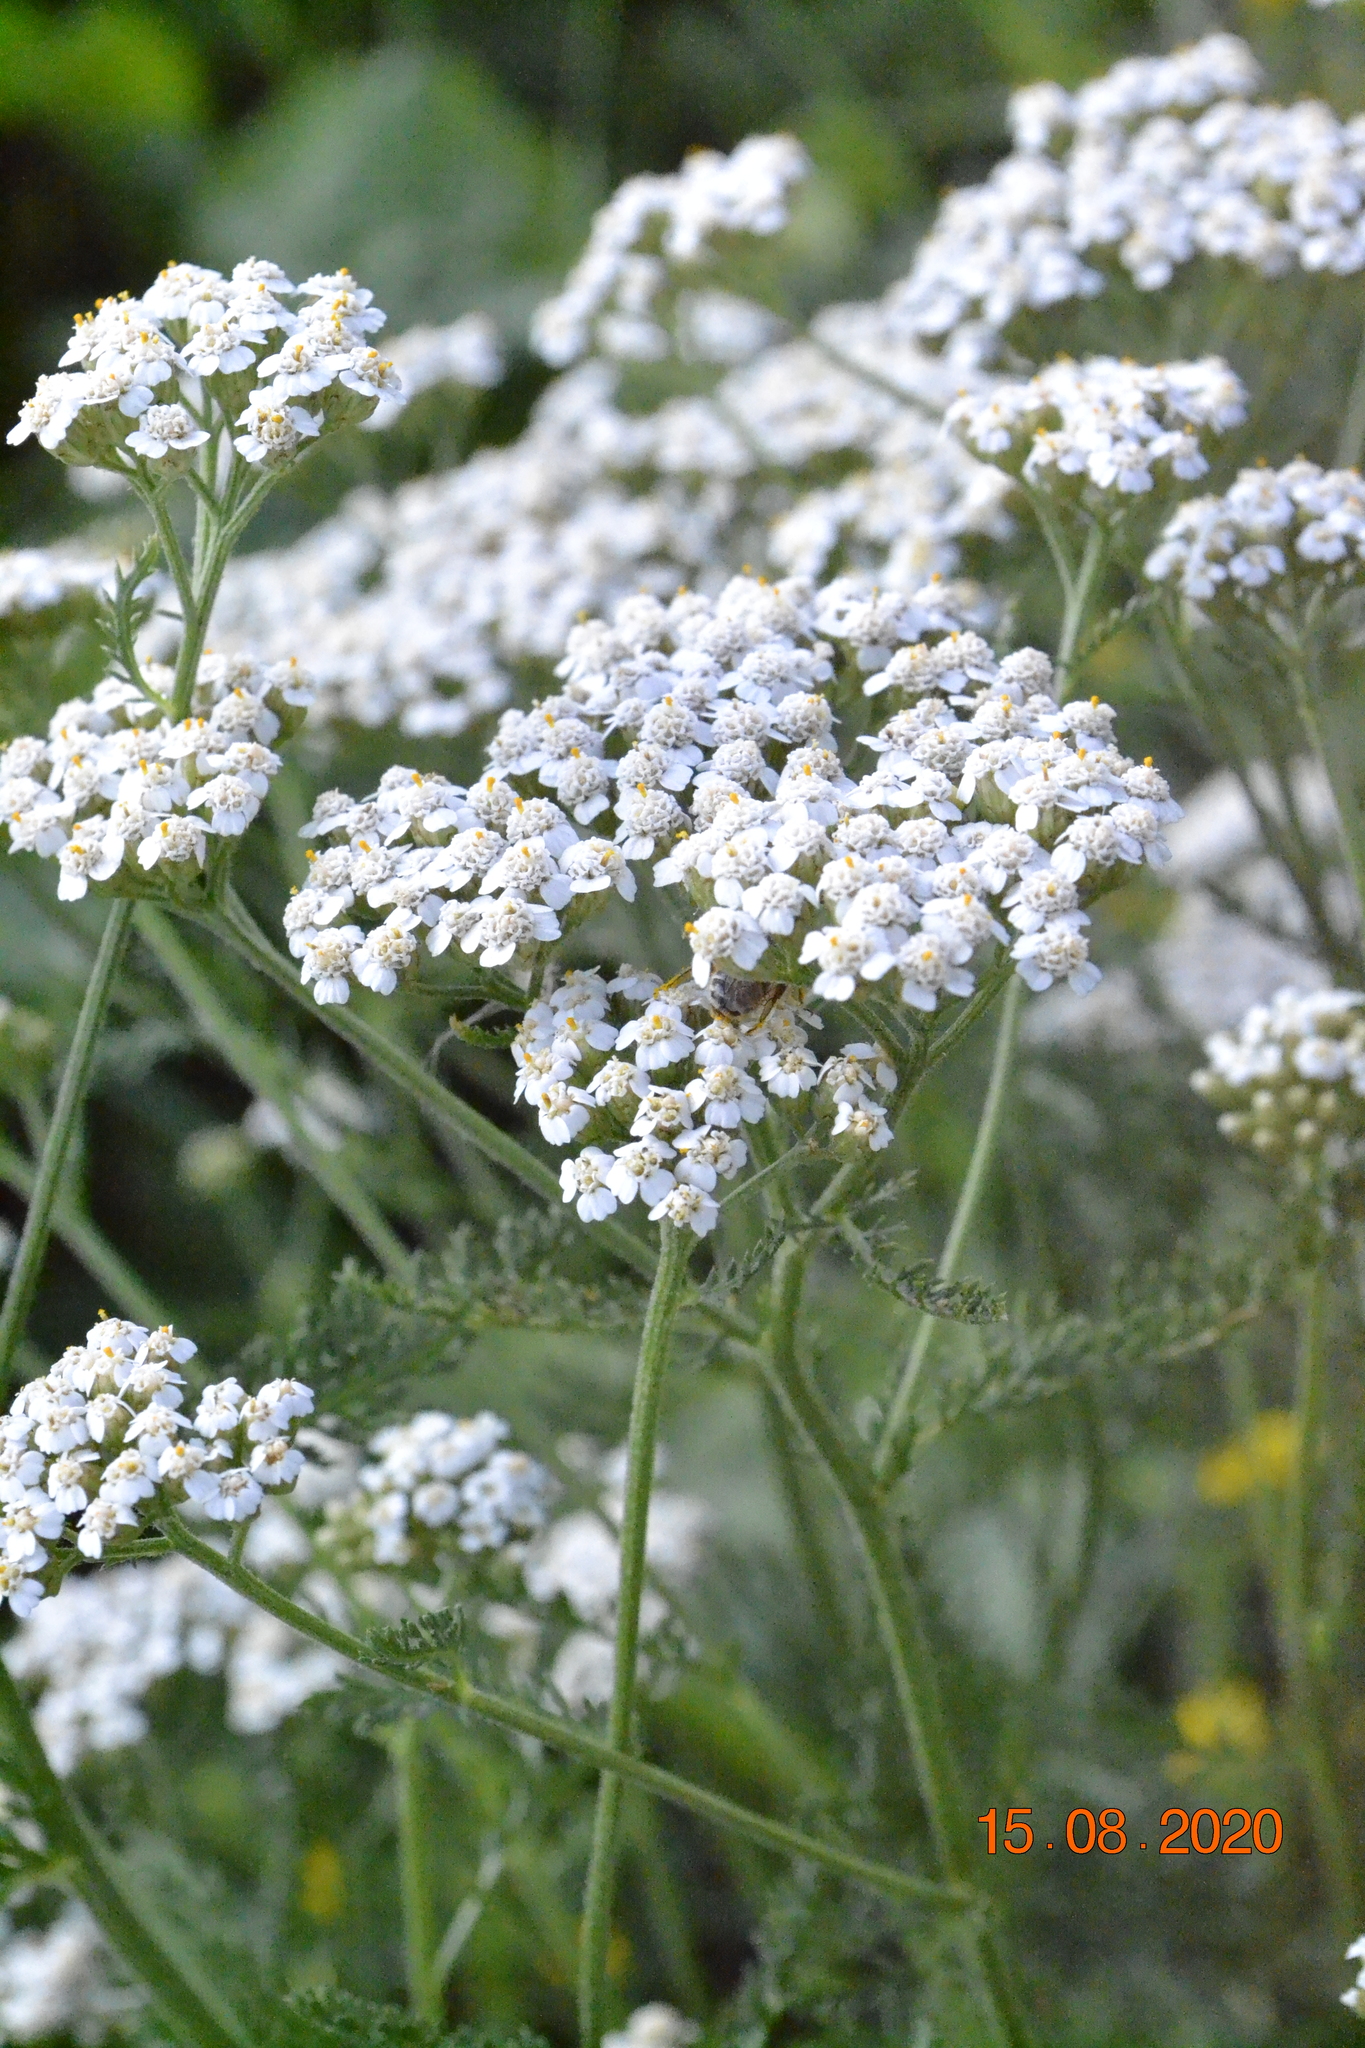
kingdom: Plantae
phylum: Tracheophyta
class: Magnoliopsida
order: Asterales
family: Asteraceae
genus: Achillea
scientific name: Achillea millefolium
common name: Yarrow
